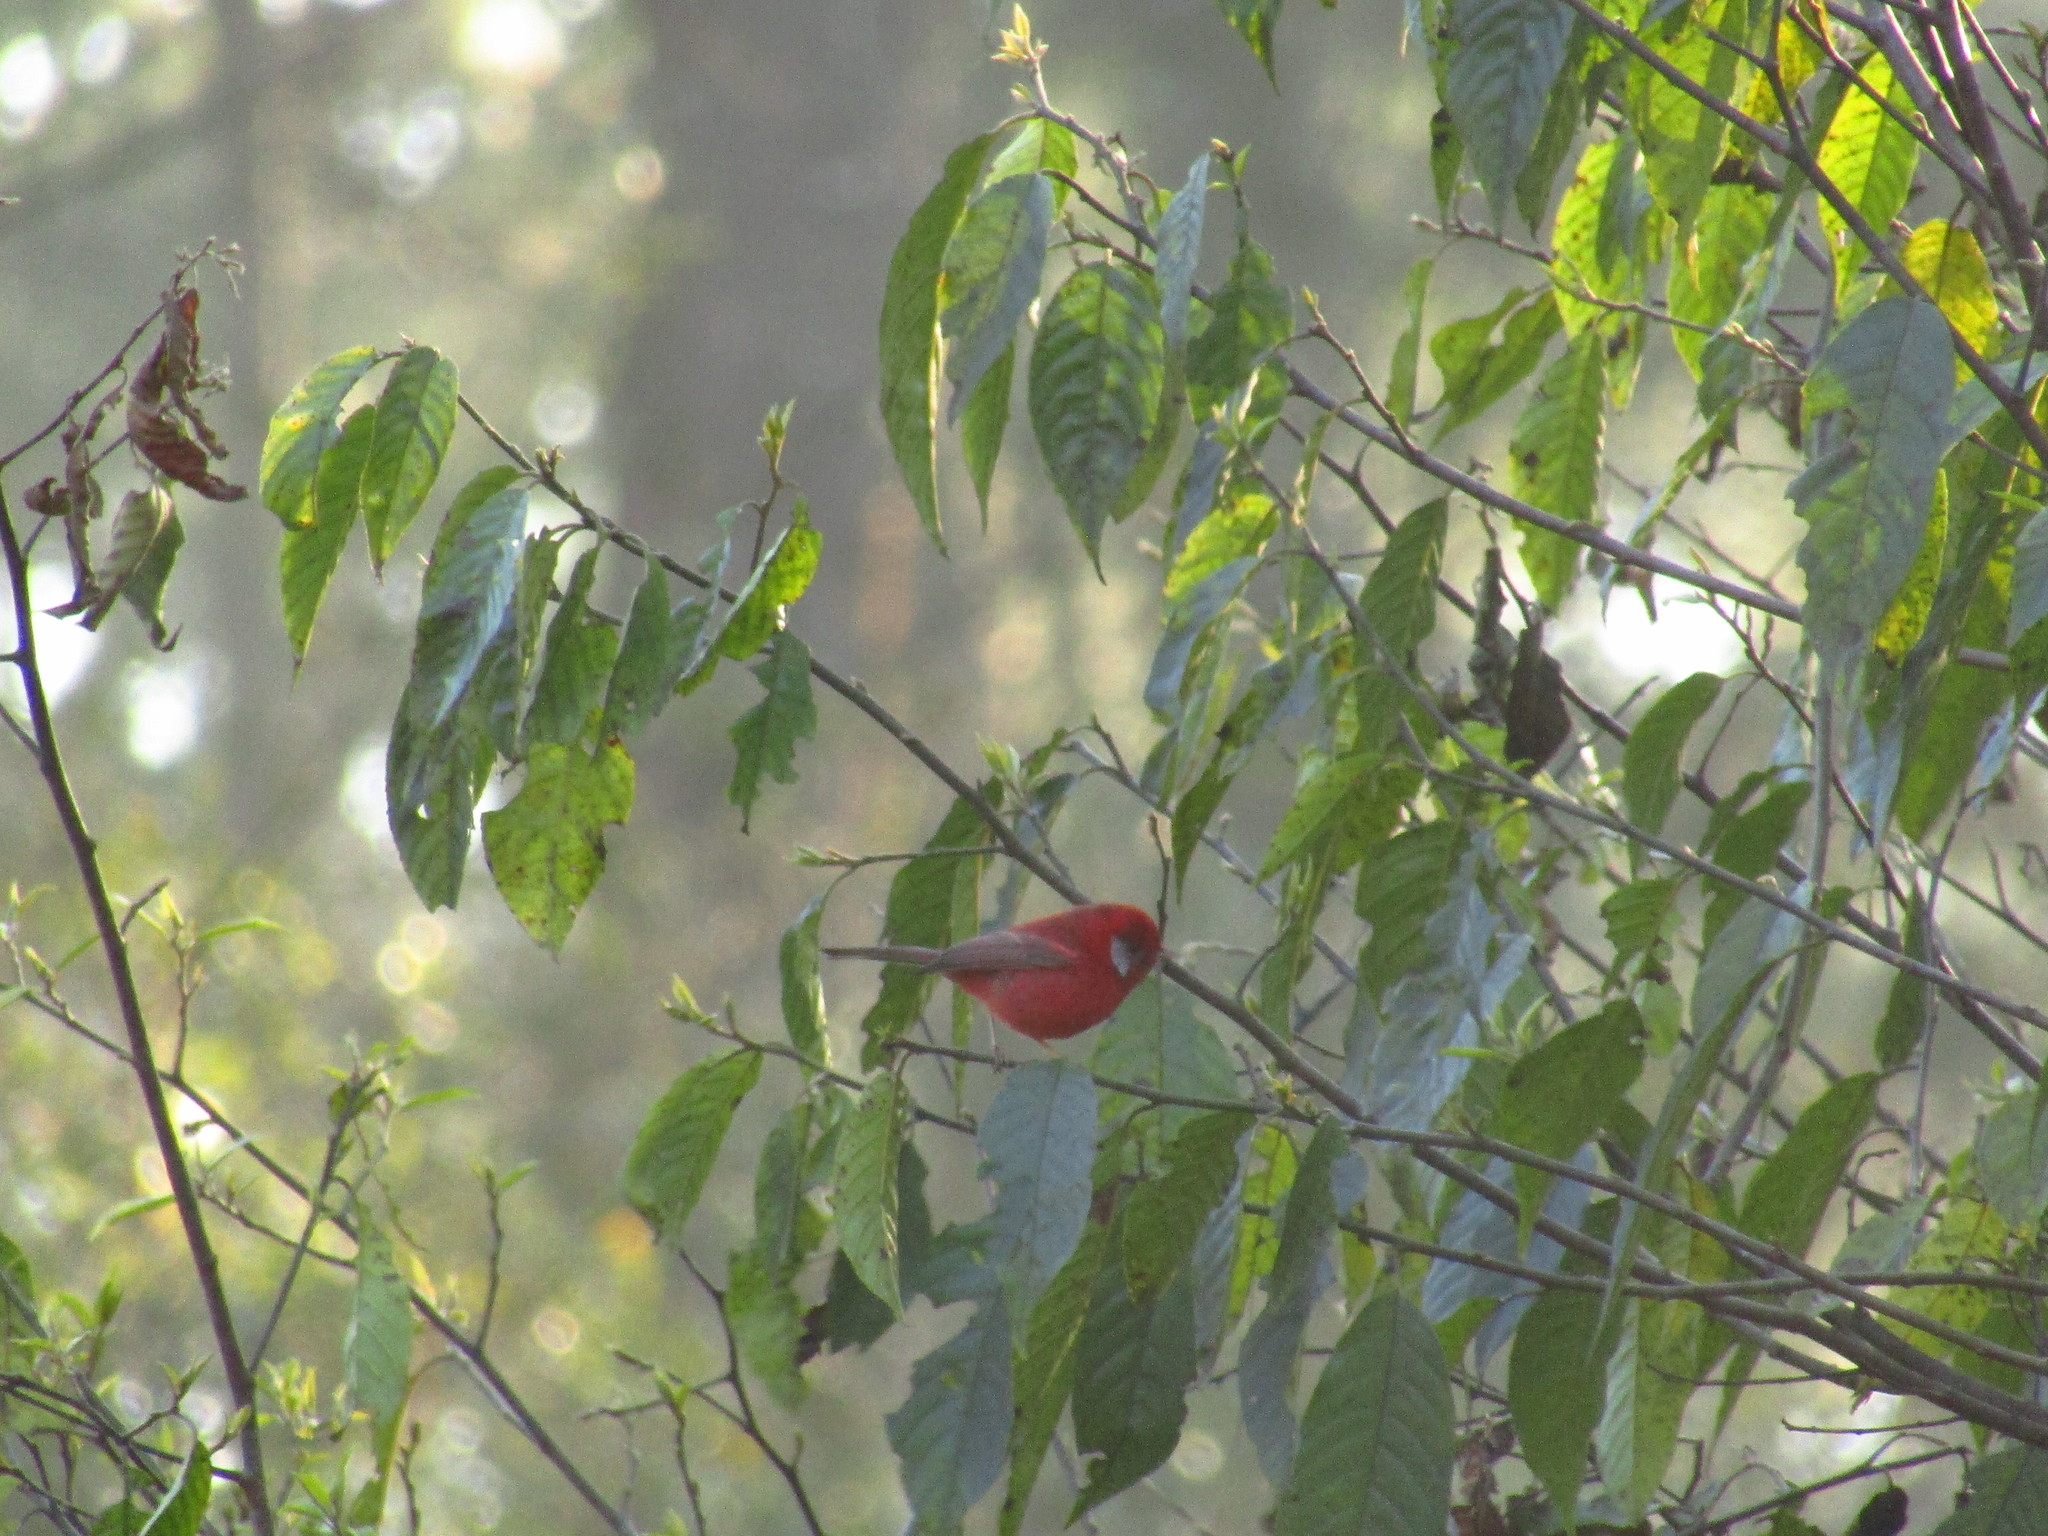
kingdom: Animalia
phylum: Chordata
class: Aves
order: Passeriformes
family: Parulidae
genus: Cardellina
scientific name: Cardellina rubra
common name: Red warbler
